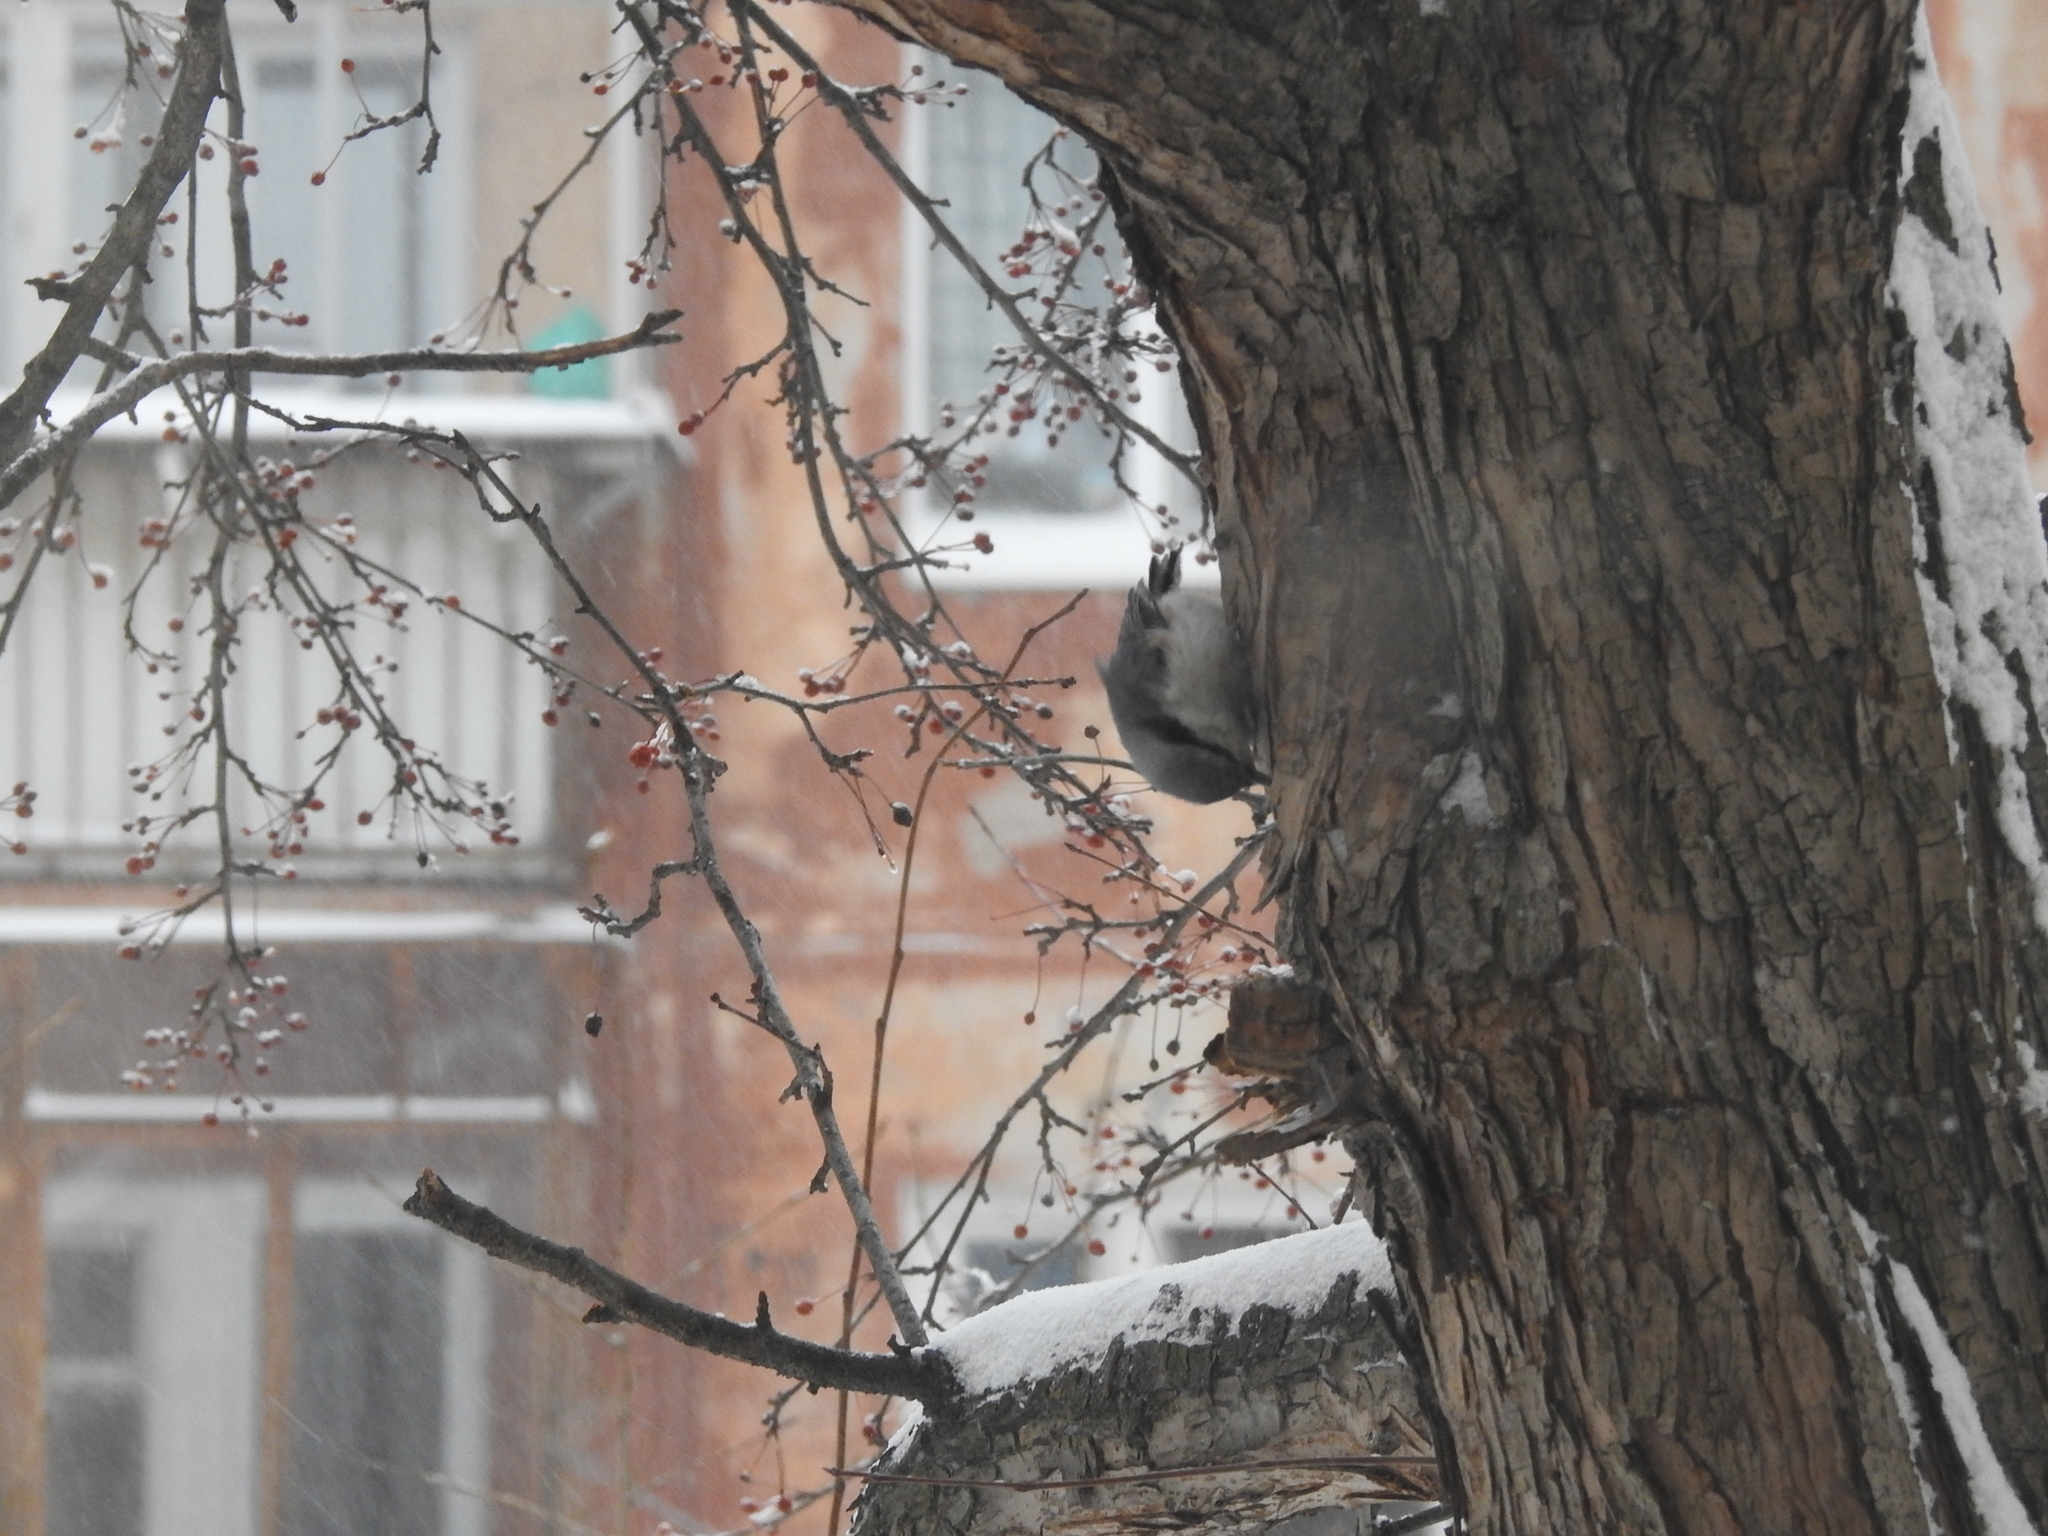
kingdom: Animalia
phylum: Chordata
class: Aves
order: Passeriformes
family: Sittidae
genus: Sitta
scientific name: Sitta europaea
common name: Eurasian nuthatch
